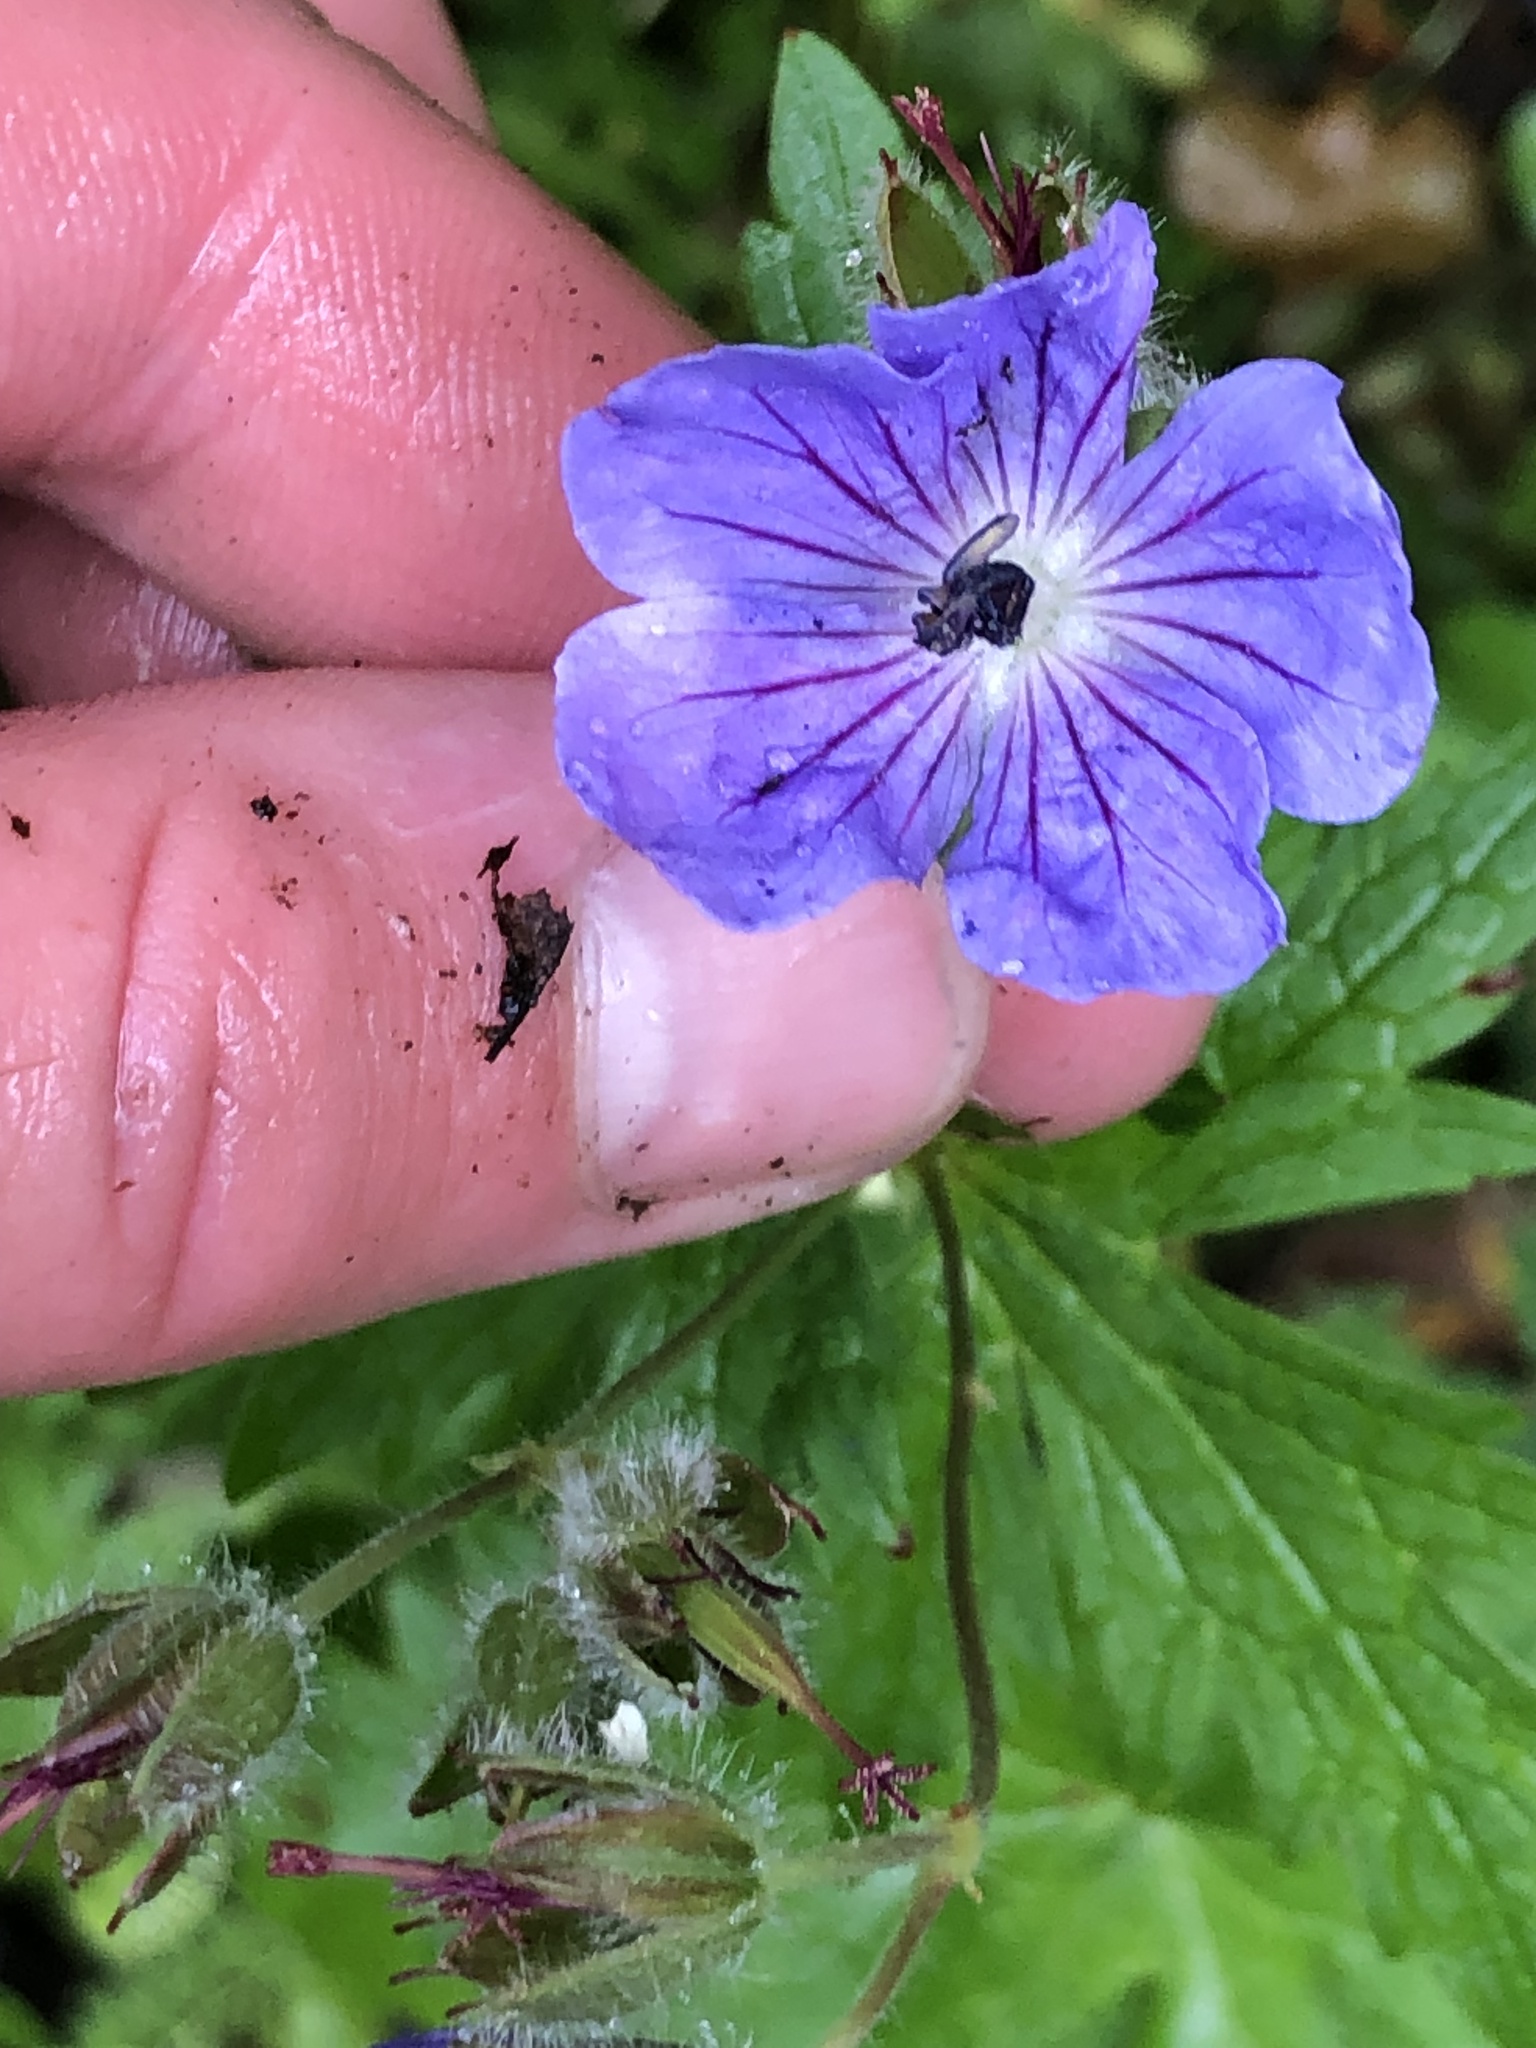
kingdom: Plantae
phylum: Tracheophyta
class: Magnoliopsida
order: Geraniales
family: Geraniaceae
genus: Geranium
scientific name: Geranium erianthum
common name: Northern crane's-bill
